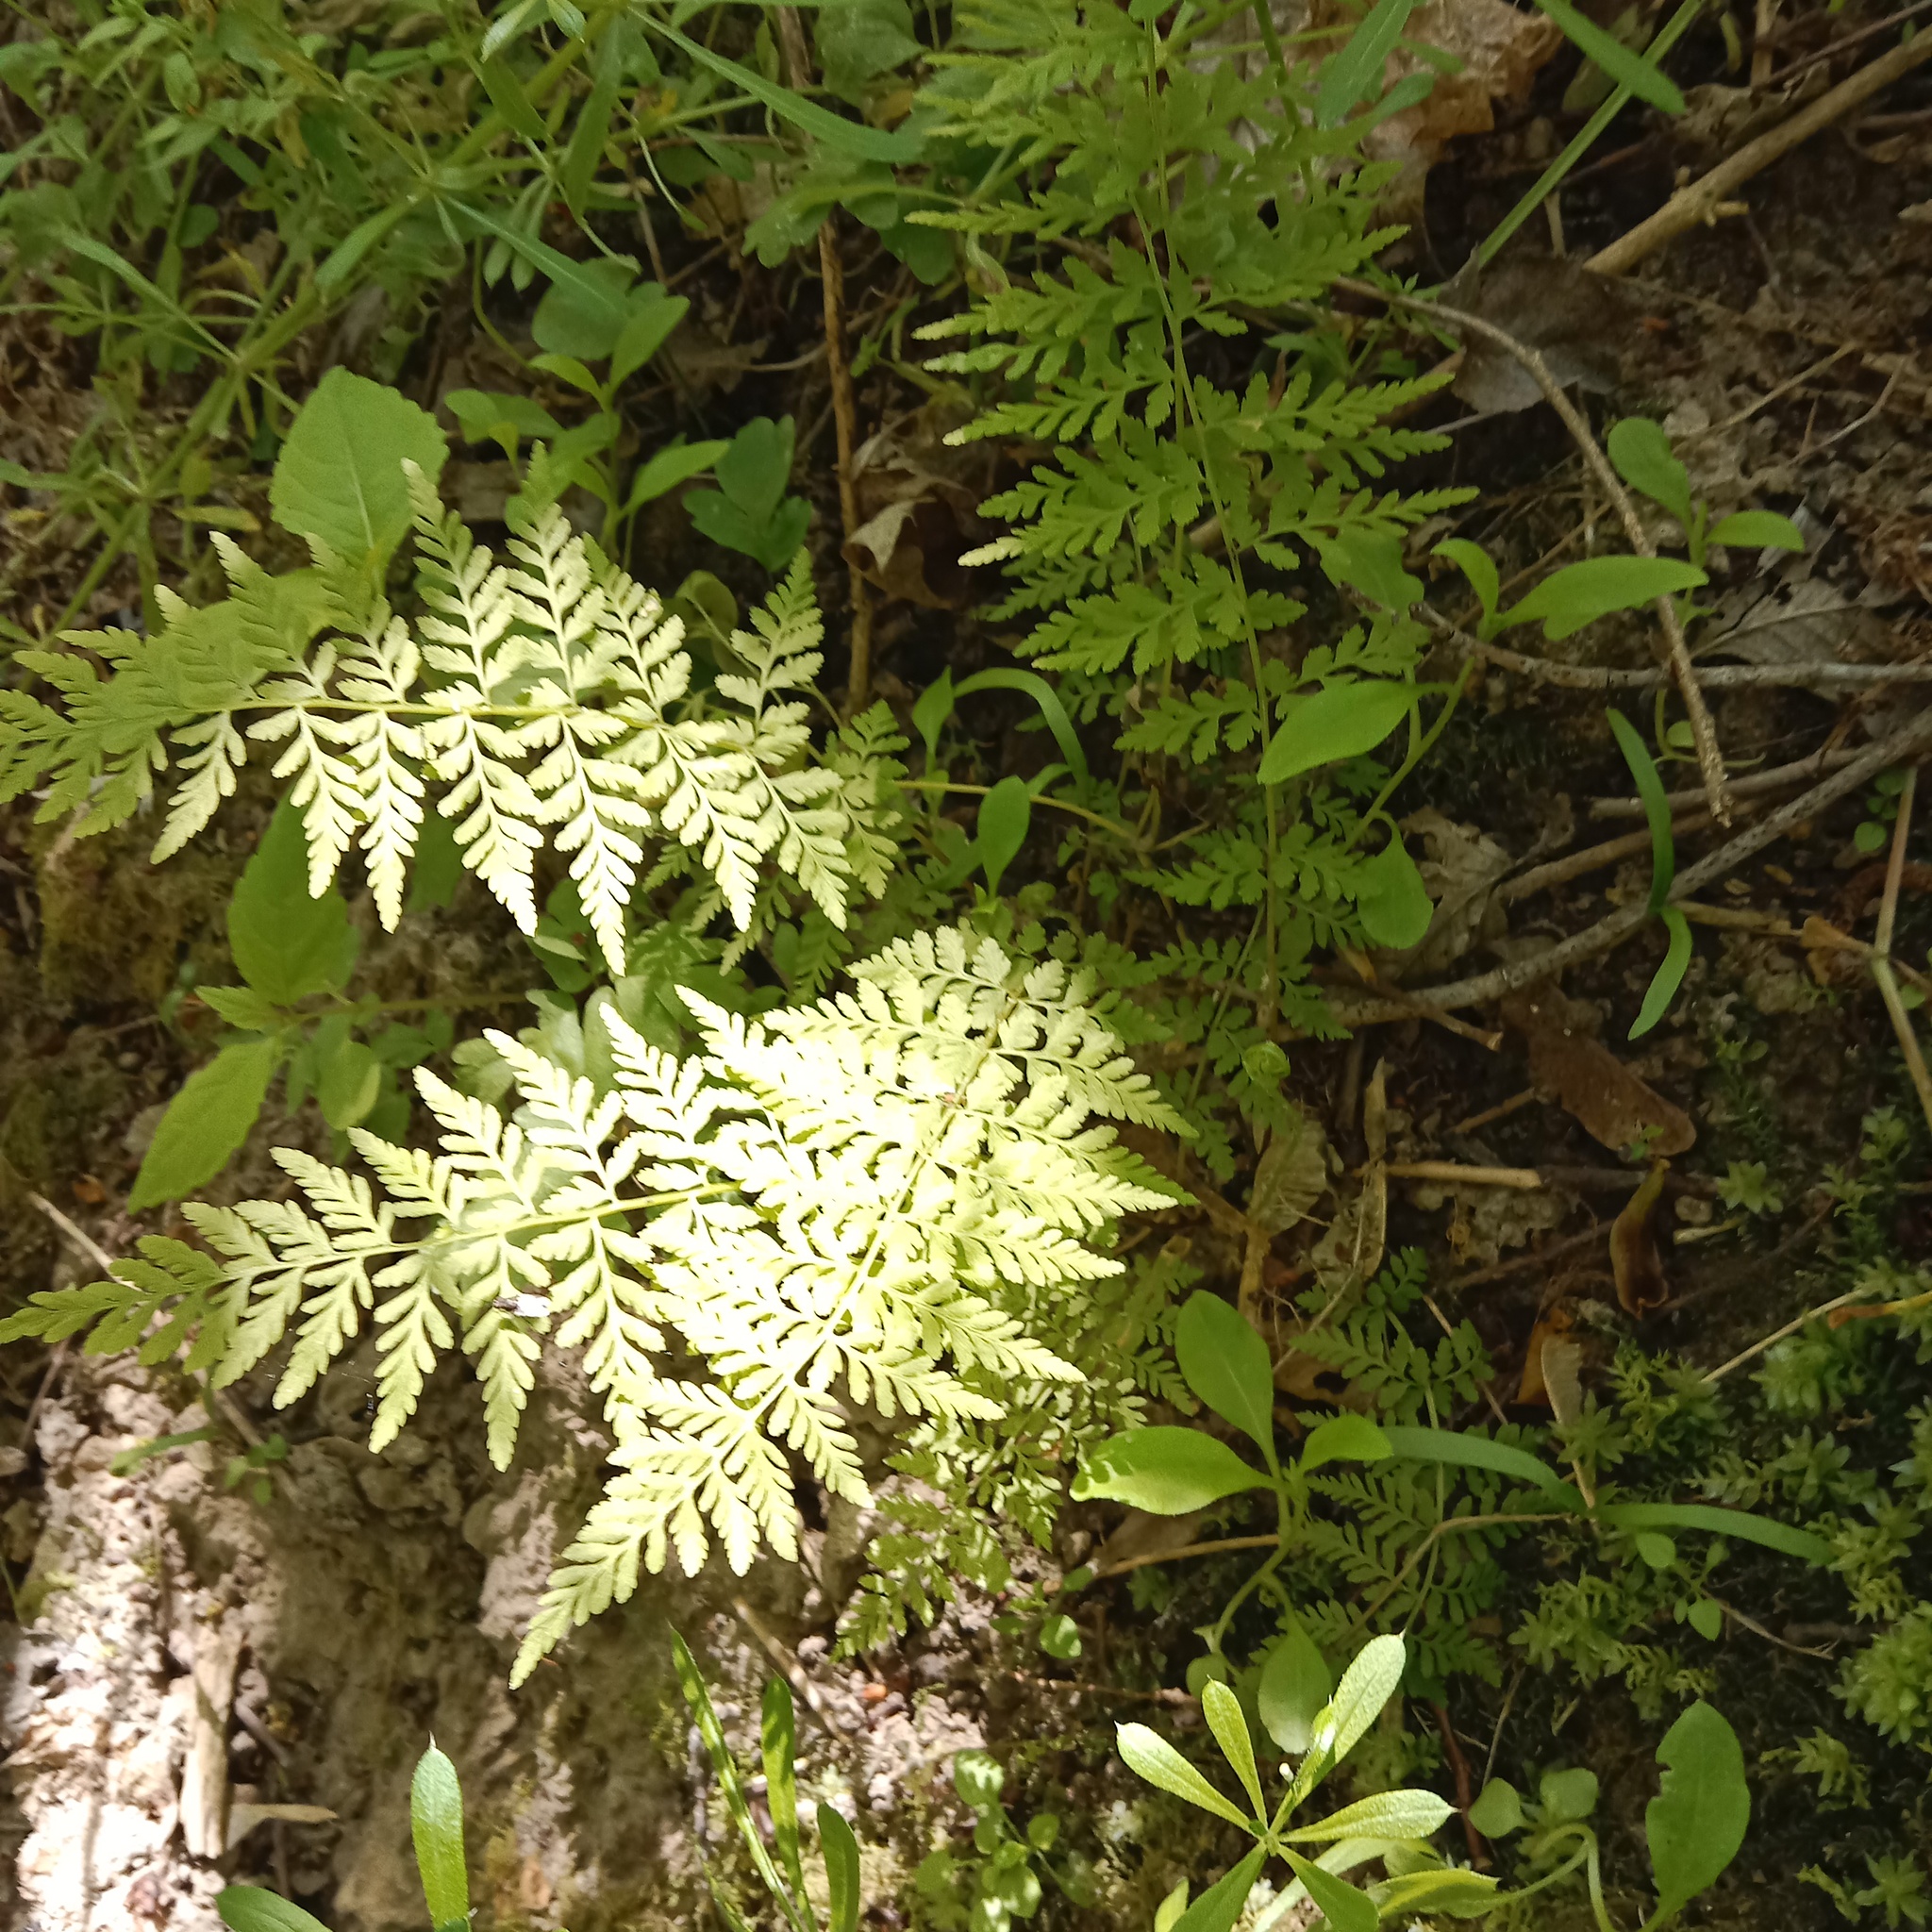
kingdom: Plantae
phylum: Tracheophyta
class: Polypodiopsida
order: Polypodiales
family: Cystopteridaceae
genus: Cystopteris
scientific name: Cystopteris fragilis
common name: Brittle bladder fern
